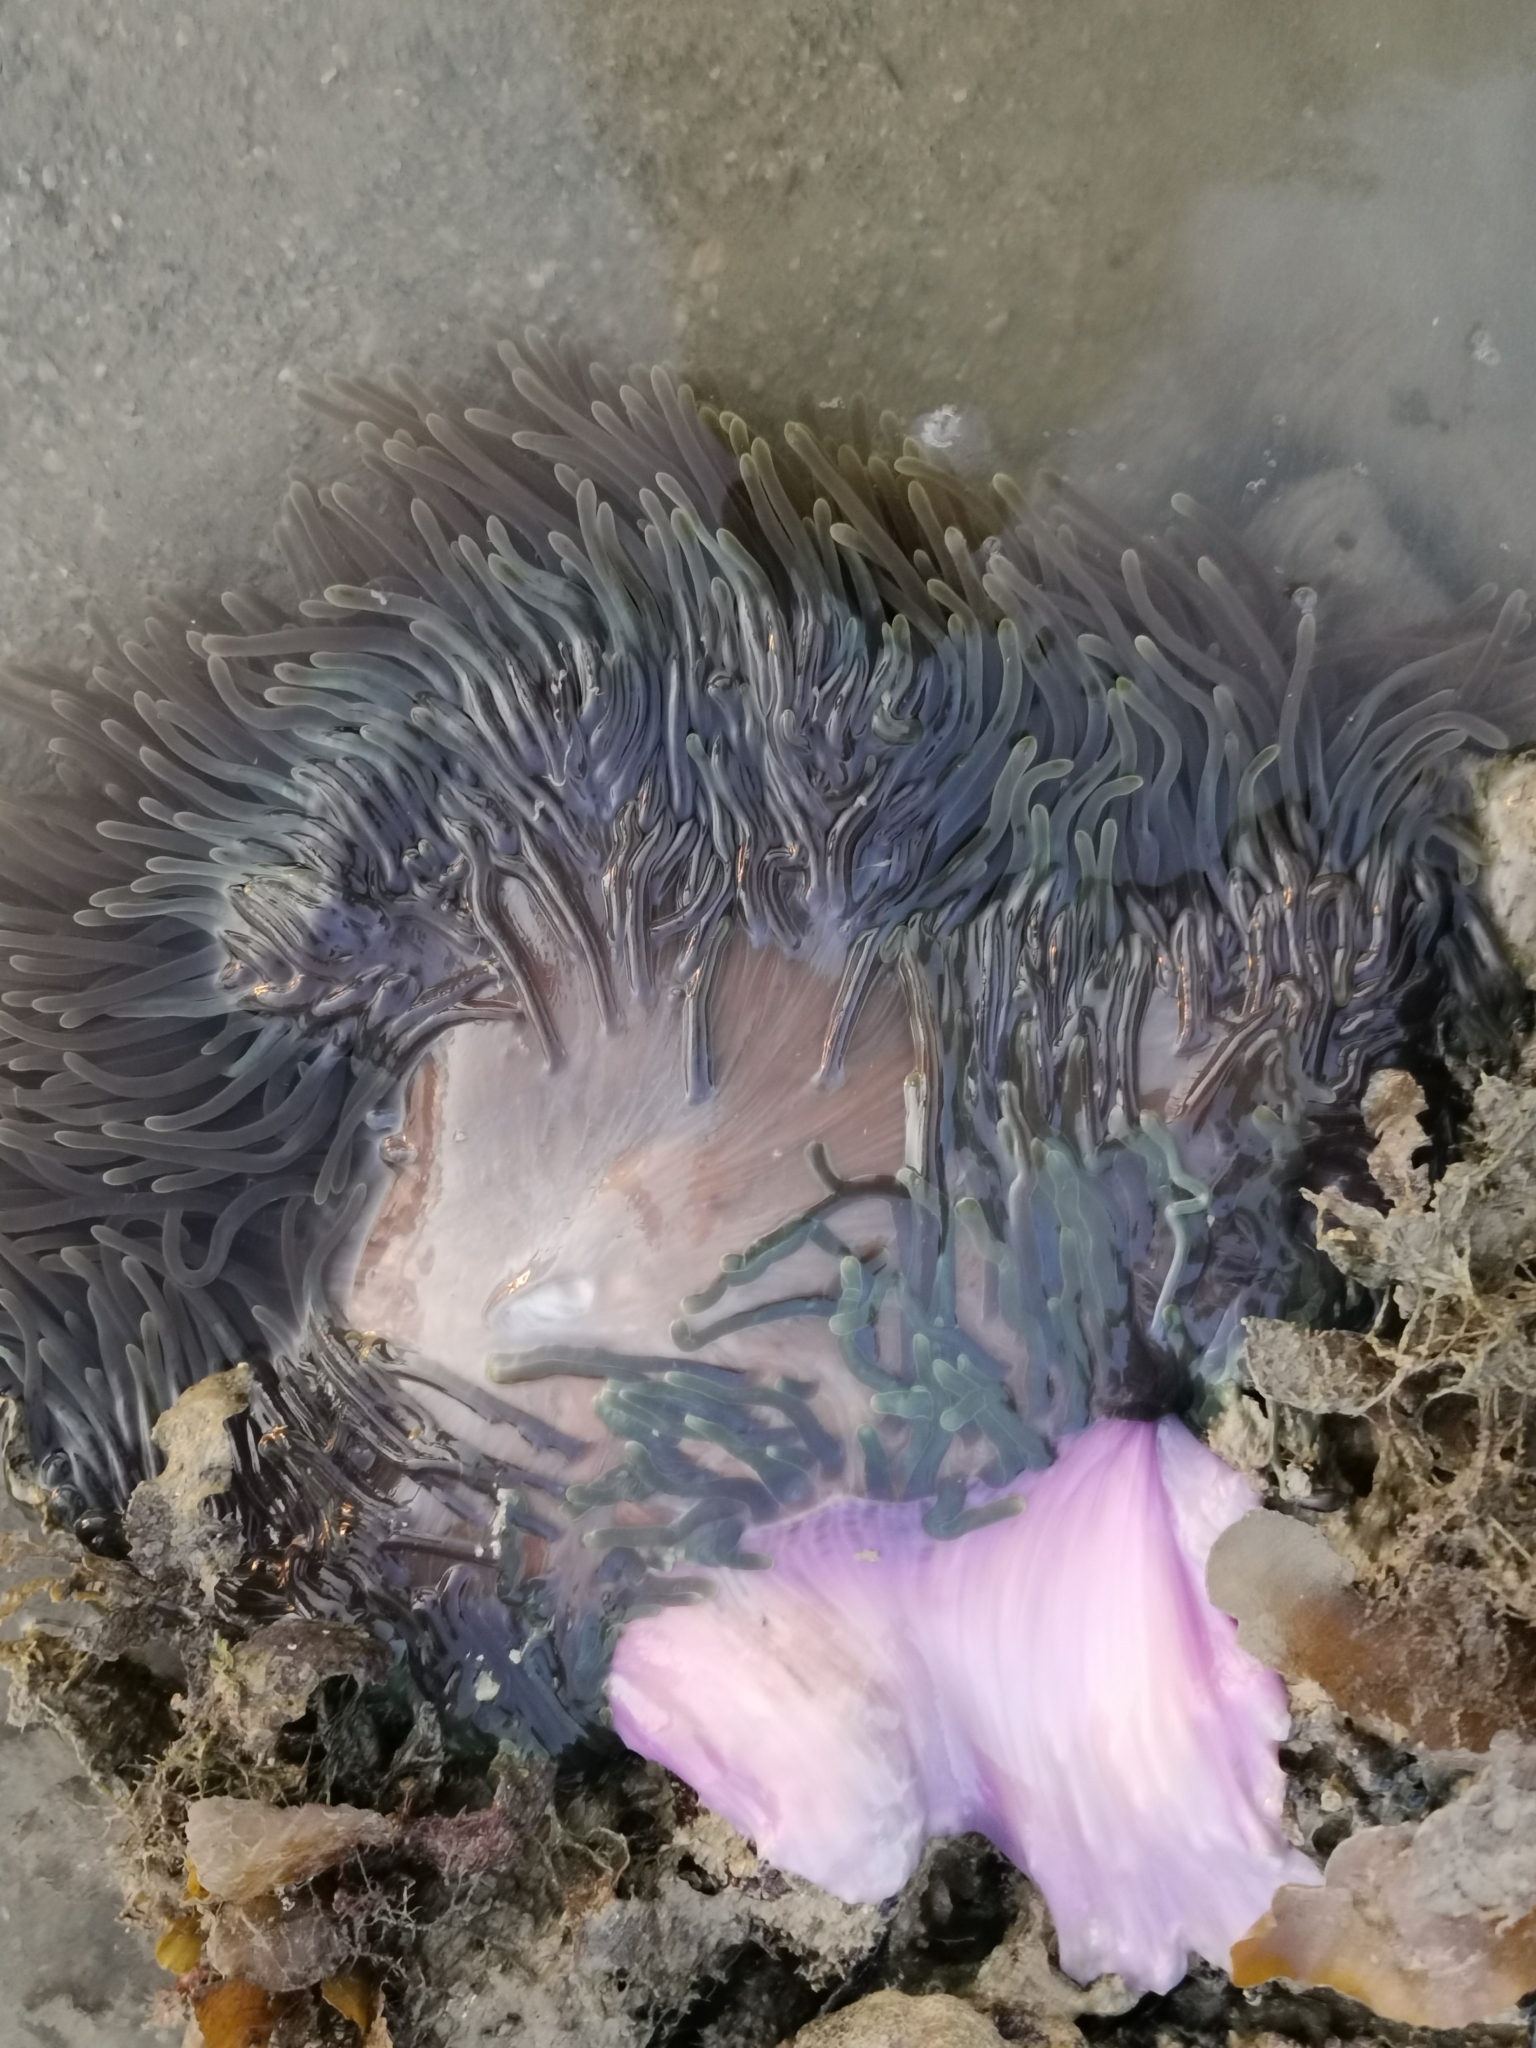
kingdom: Animalia
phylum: Cnidaria
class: Anthozoa
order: Actiniaria
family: Stichodactylidae
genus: Radianthus
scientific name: Radianthus magnifica
